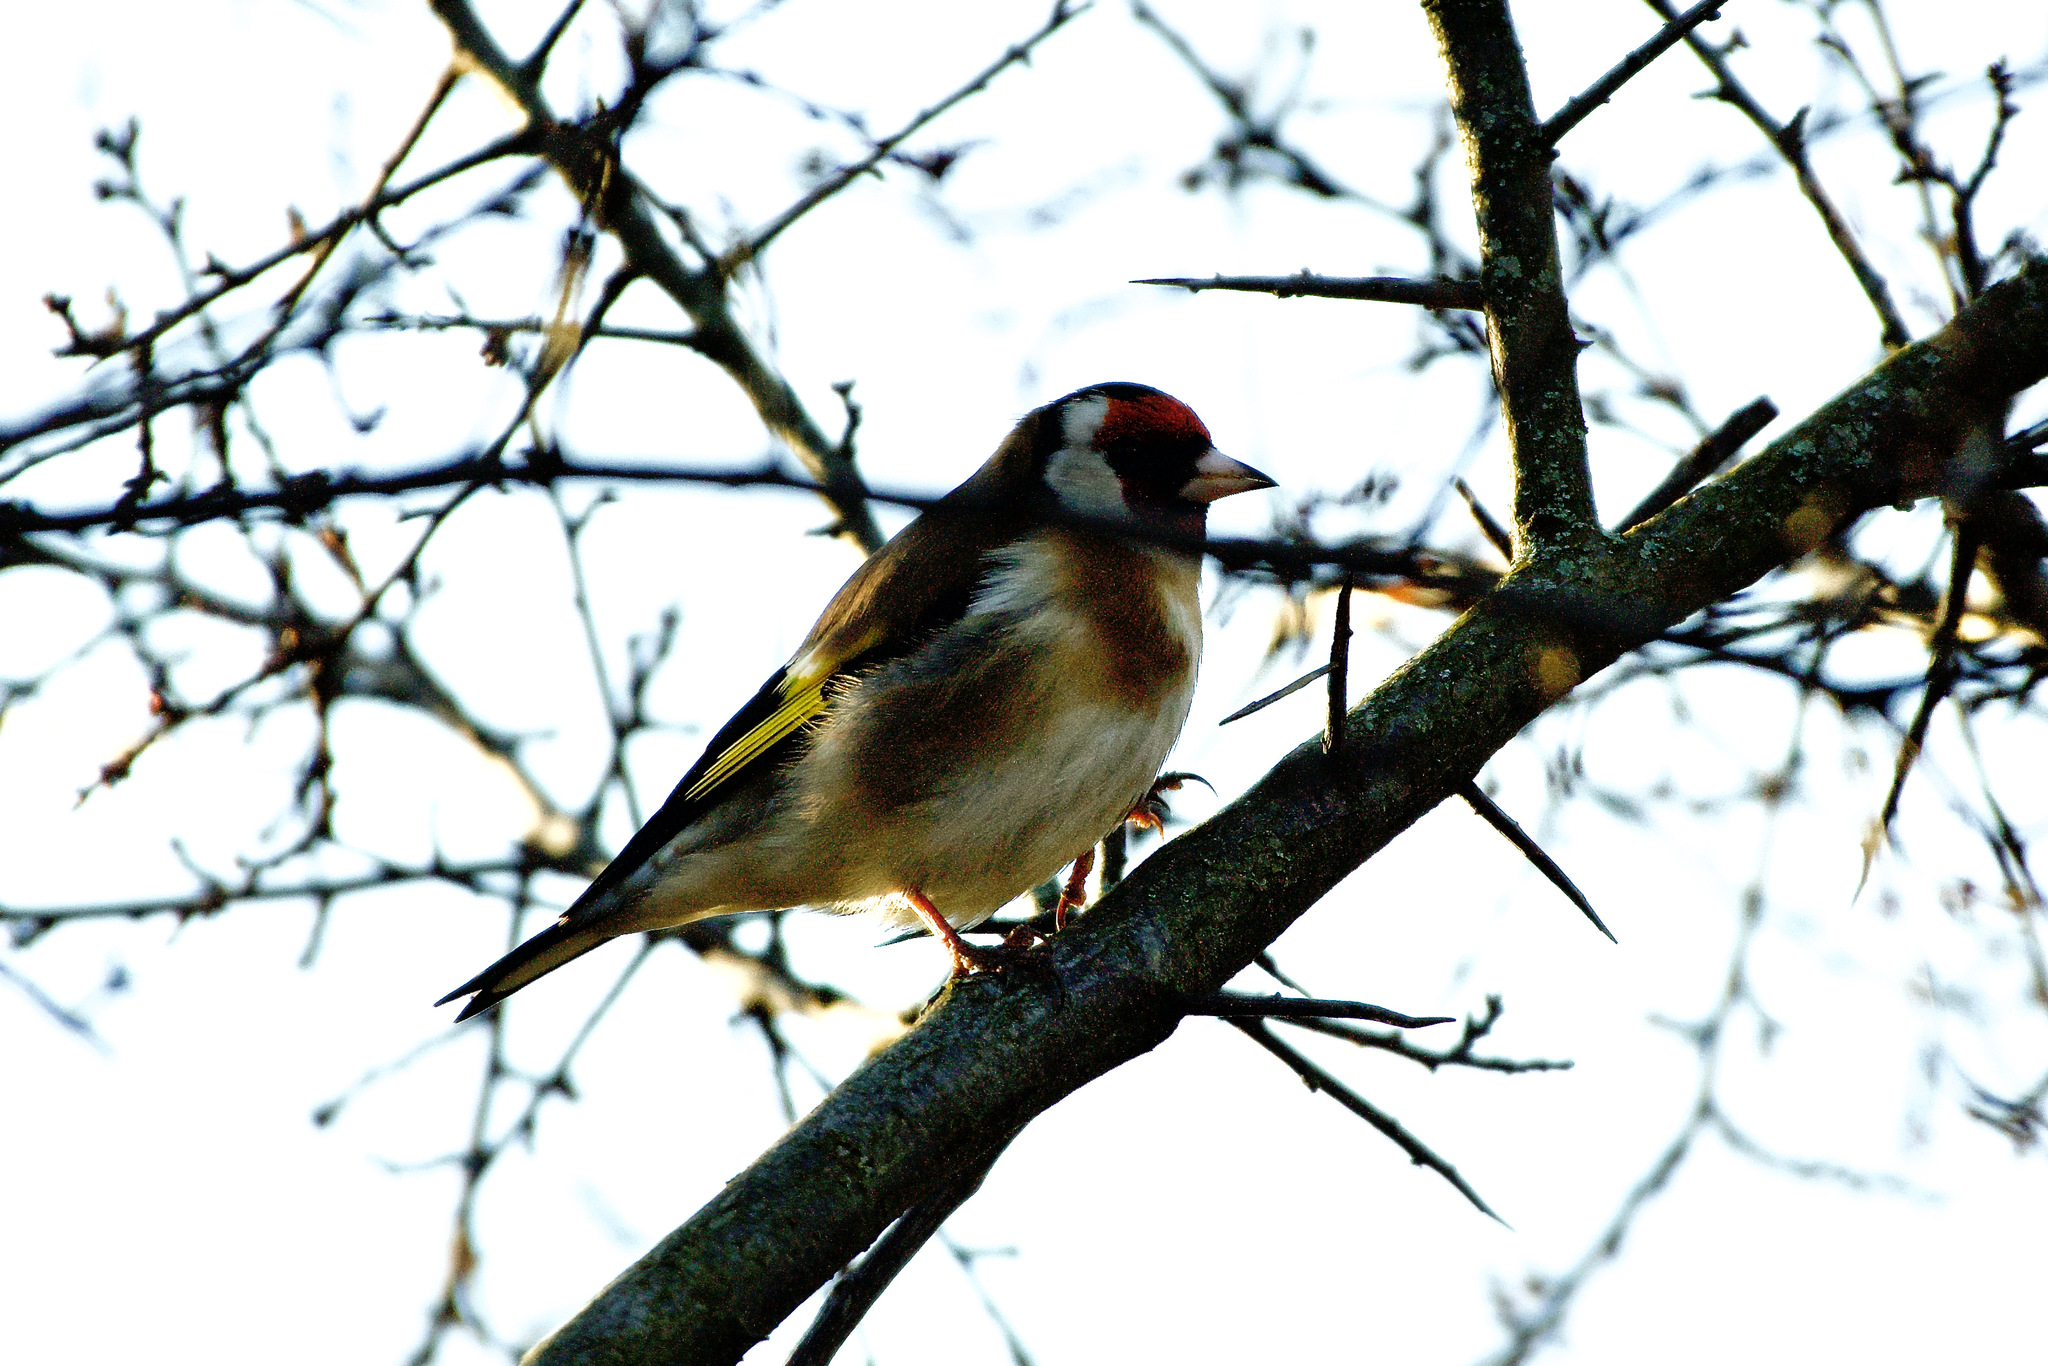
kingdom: Animalia
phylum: Chordata
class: Aves
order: Passeriformes
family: Fringillidae
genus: Carduelis
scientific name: Carduelis carduelis
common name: European goldfinch
